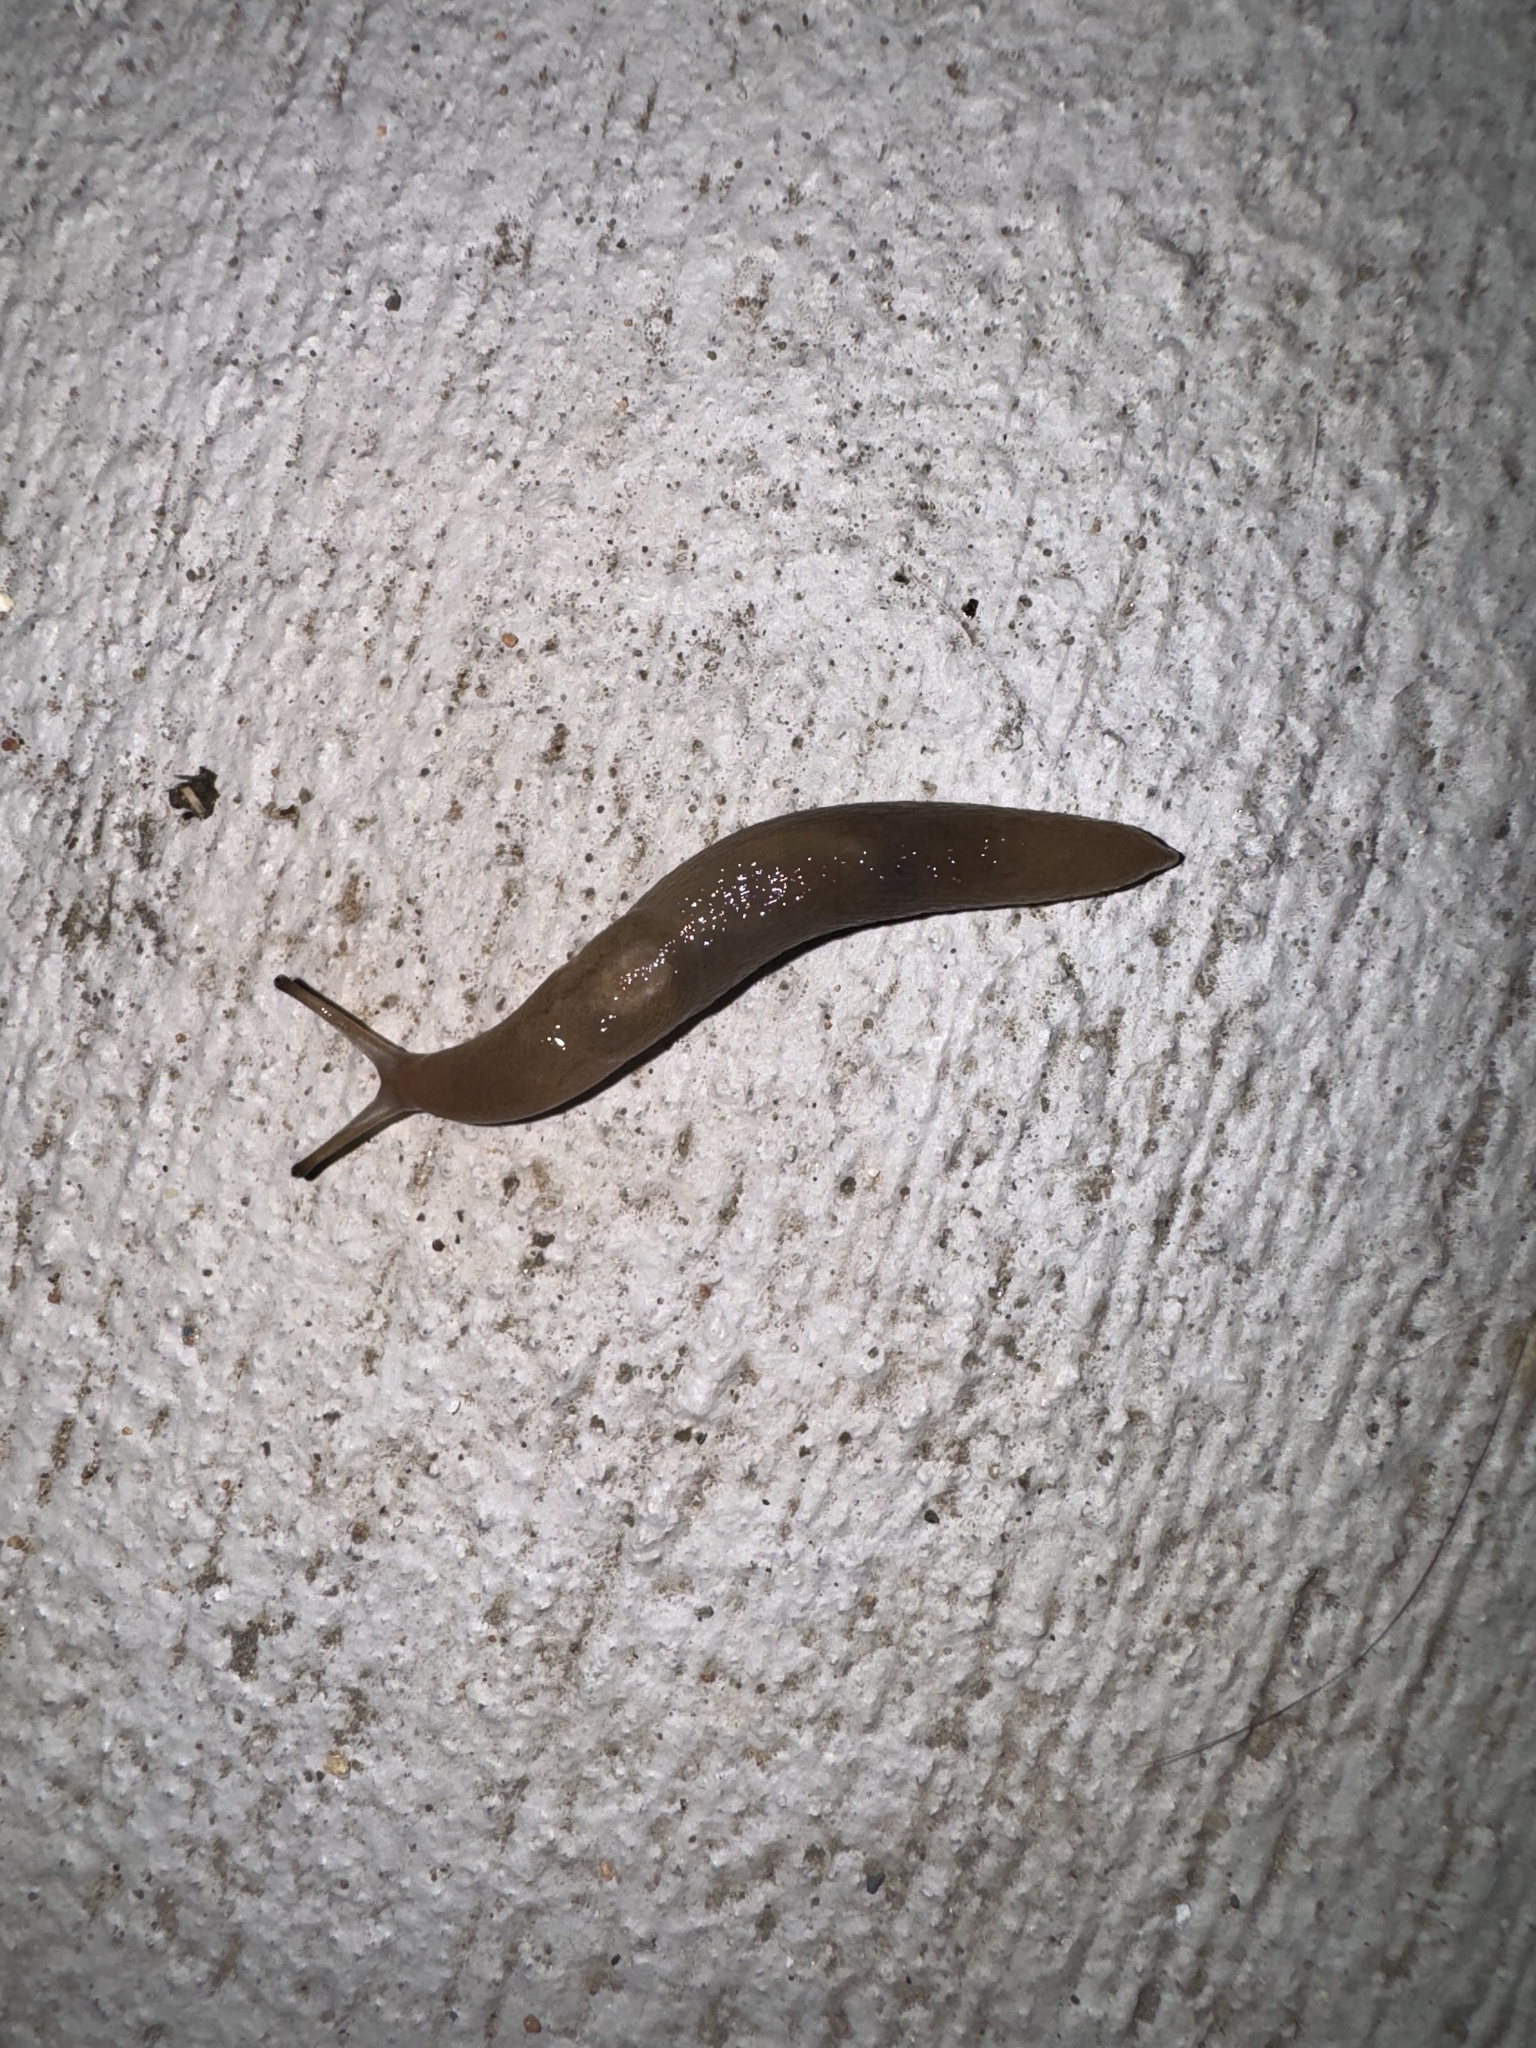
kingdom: Animalia
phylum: Mollusca
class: Gastropoda
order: Stylommatophora
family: Limacidae
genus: Ambigolimax
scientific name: Ambigolimax valentianus
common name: Greenhouse slug
